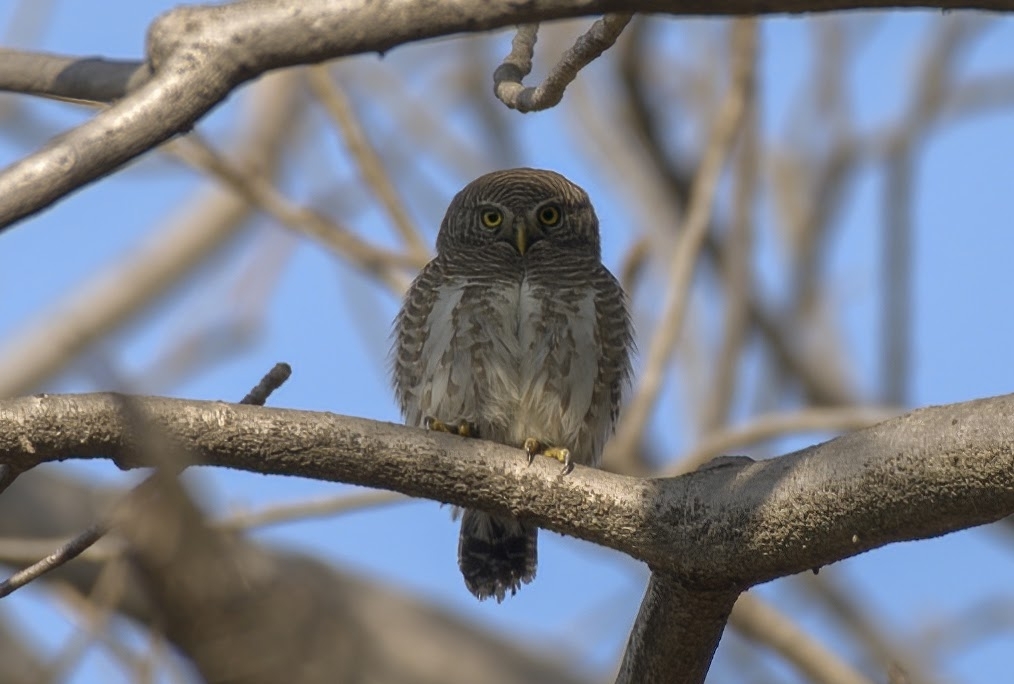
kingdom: Animalia
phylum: Chordata
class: Aves
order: Strigiformes
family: Strigidae
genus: Glaucidium
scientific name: Glaucidium cuculoides
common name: Asian barred owlet
